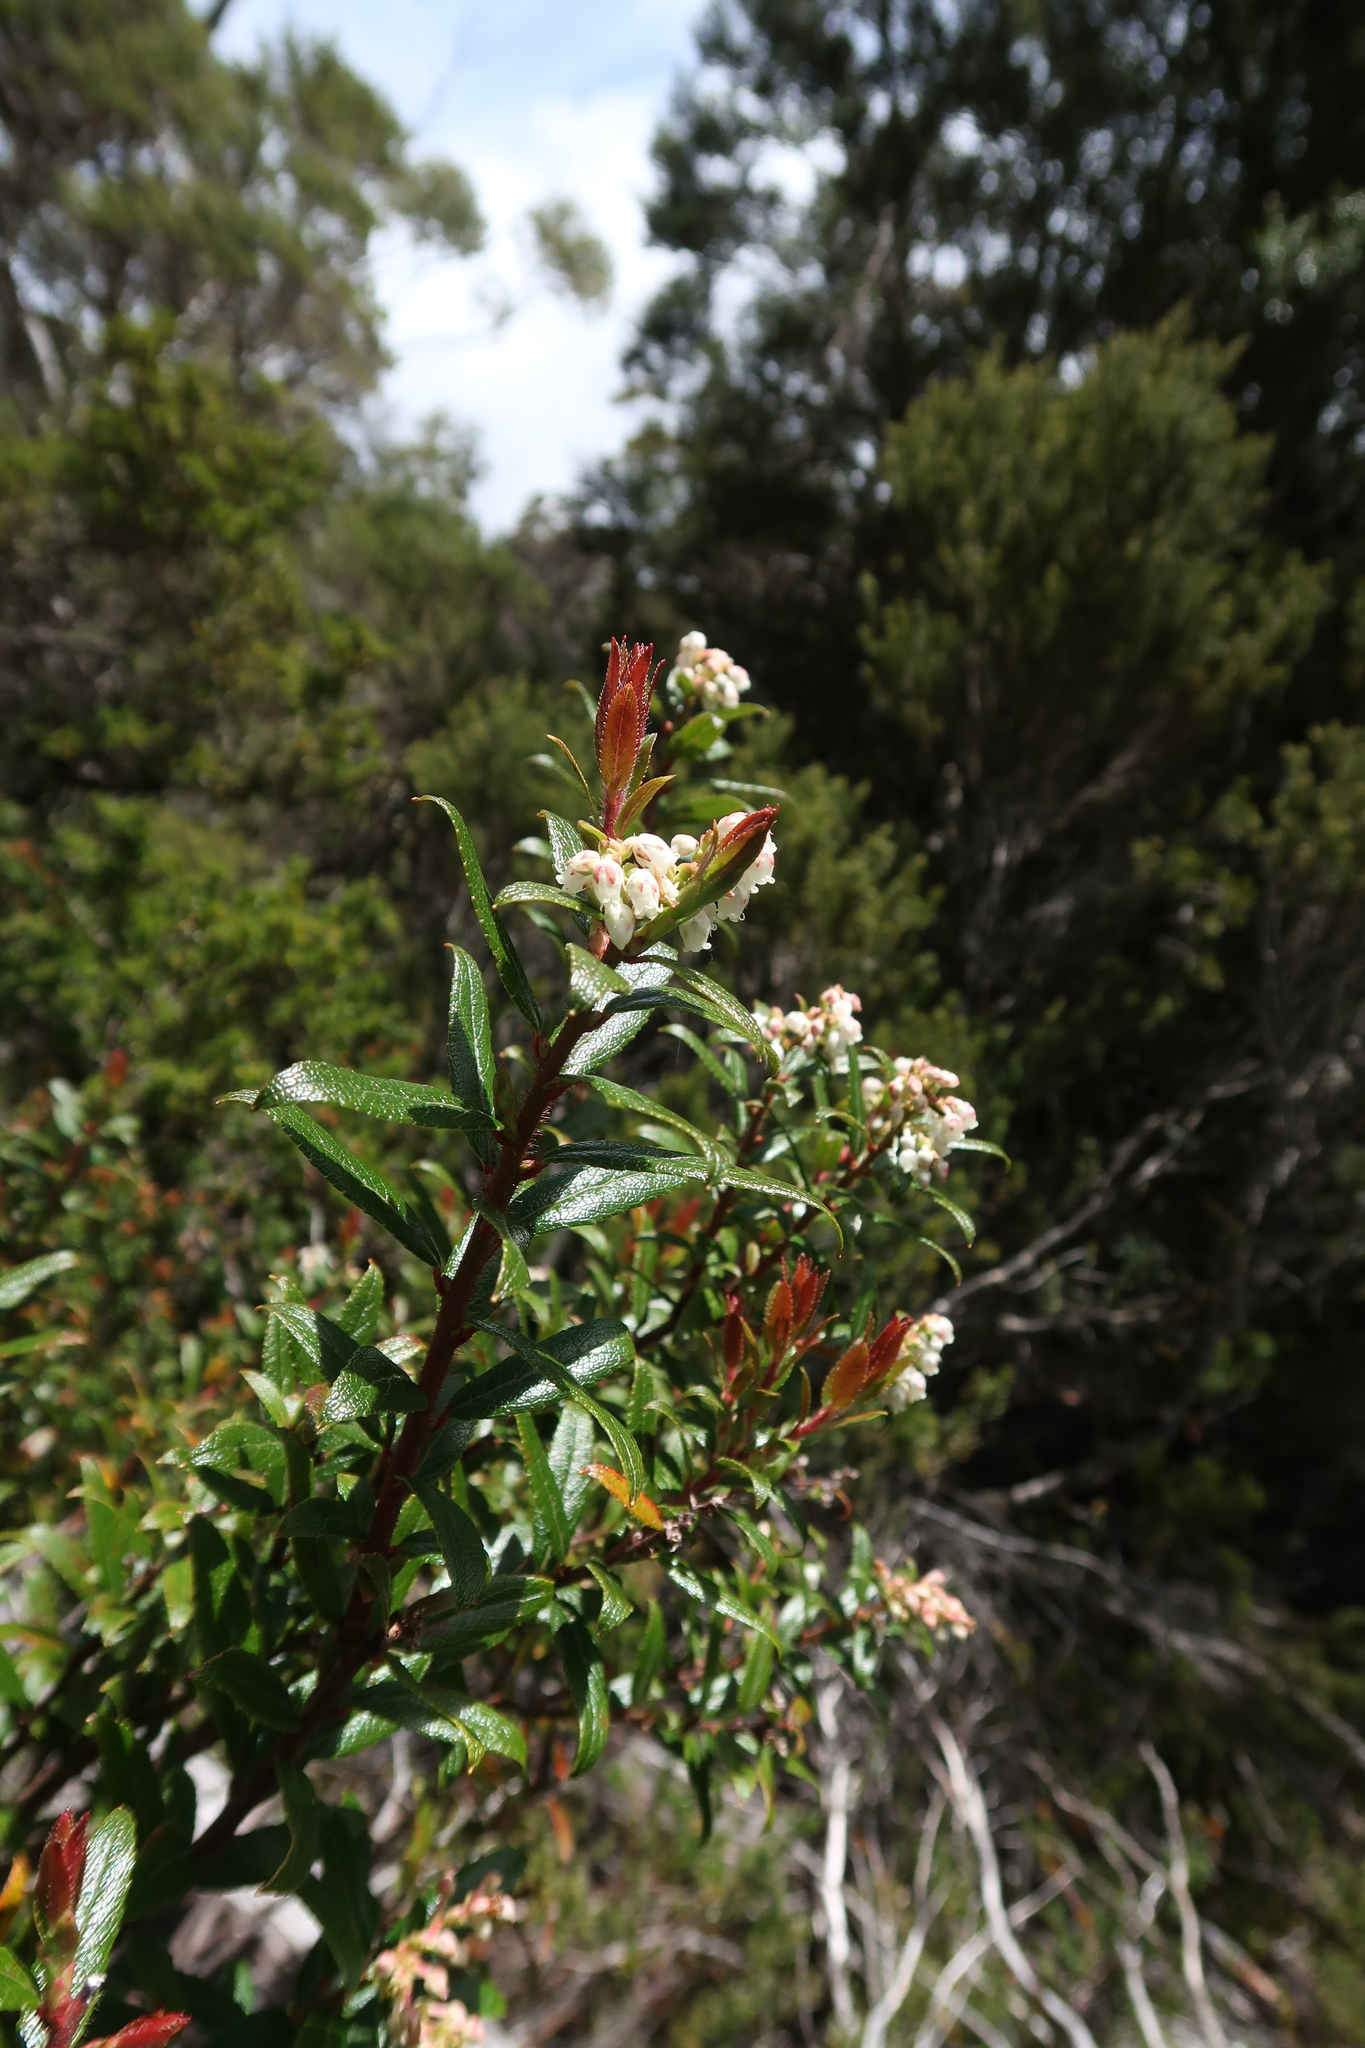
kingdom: Plantae
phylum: Tracheophyta
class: Magnoliopsida
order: Ericales
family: Ericaceae
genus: Gaultheria
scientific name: Gaultheria hispida
